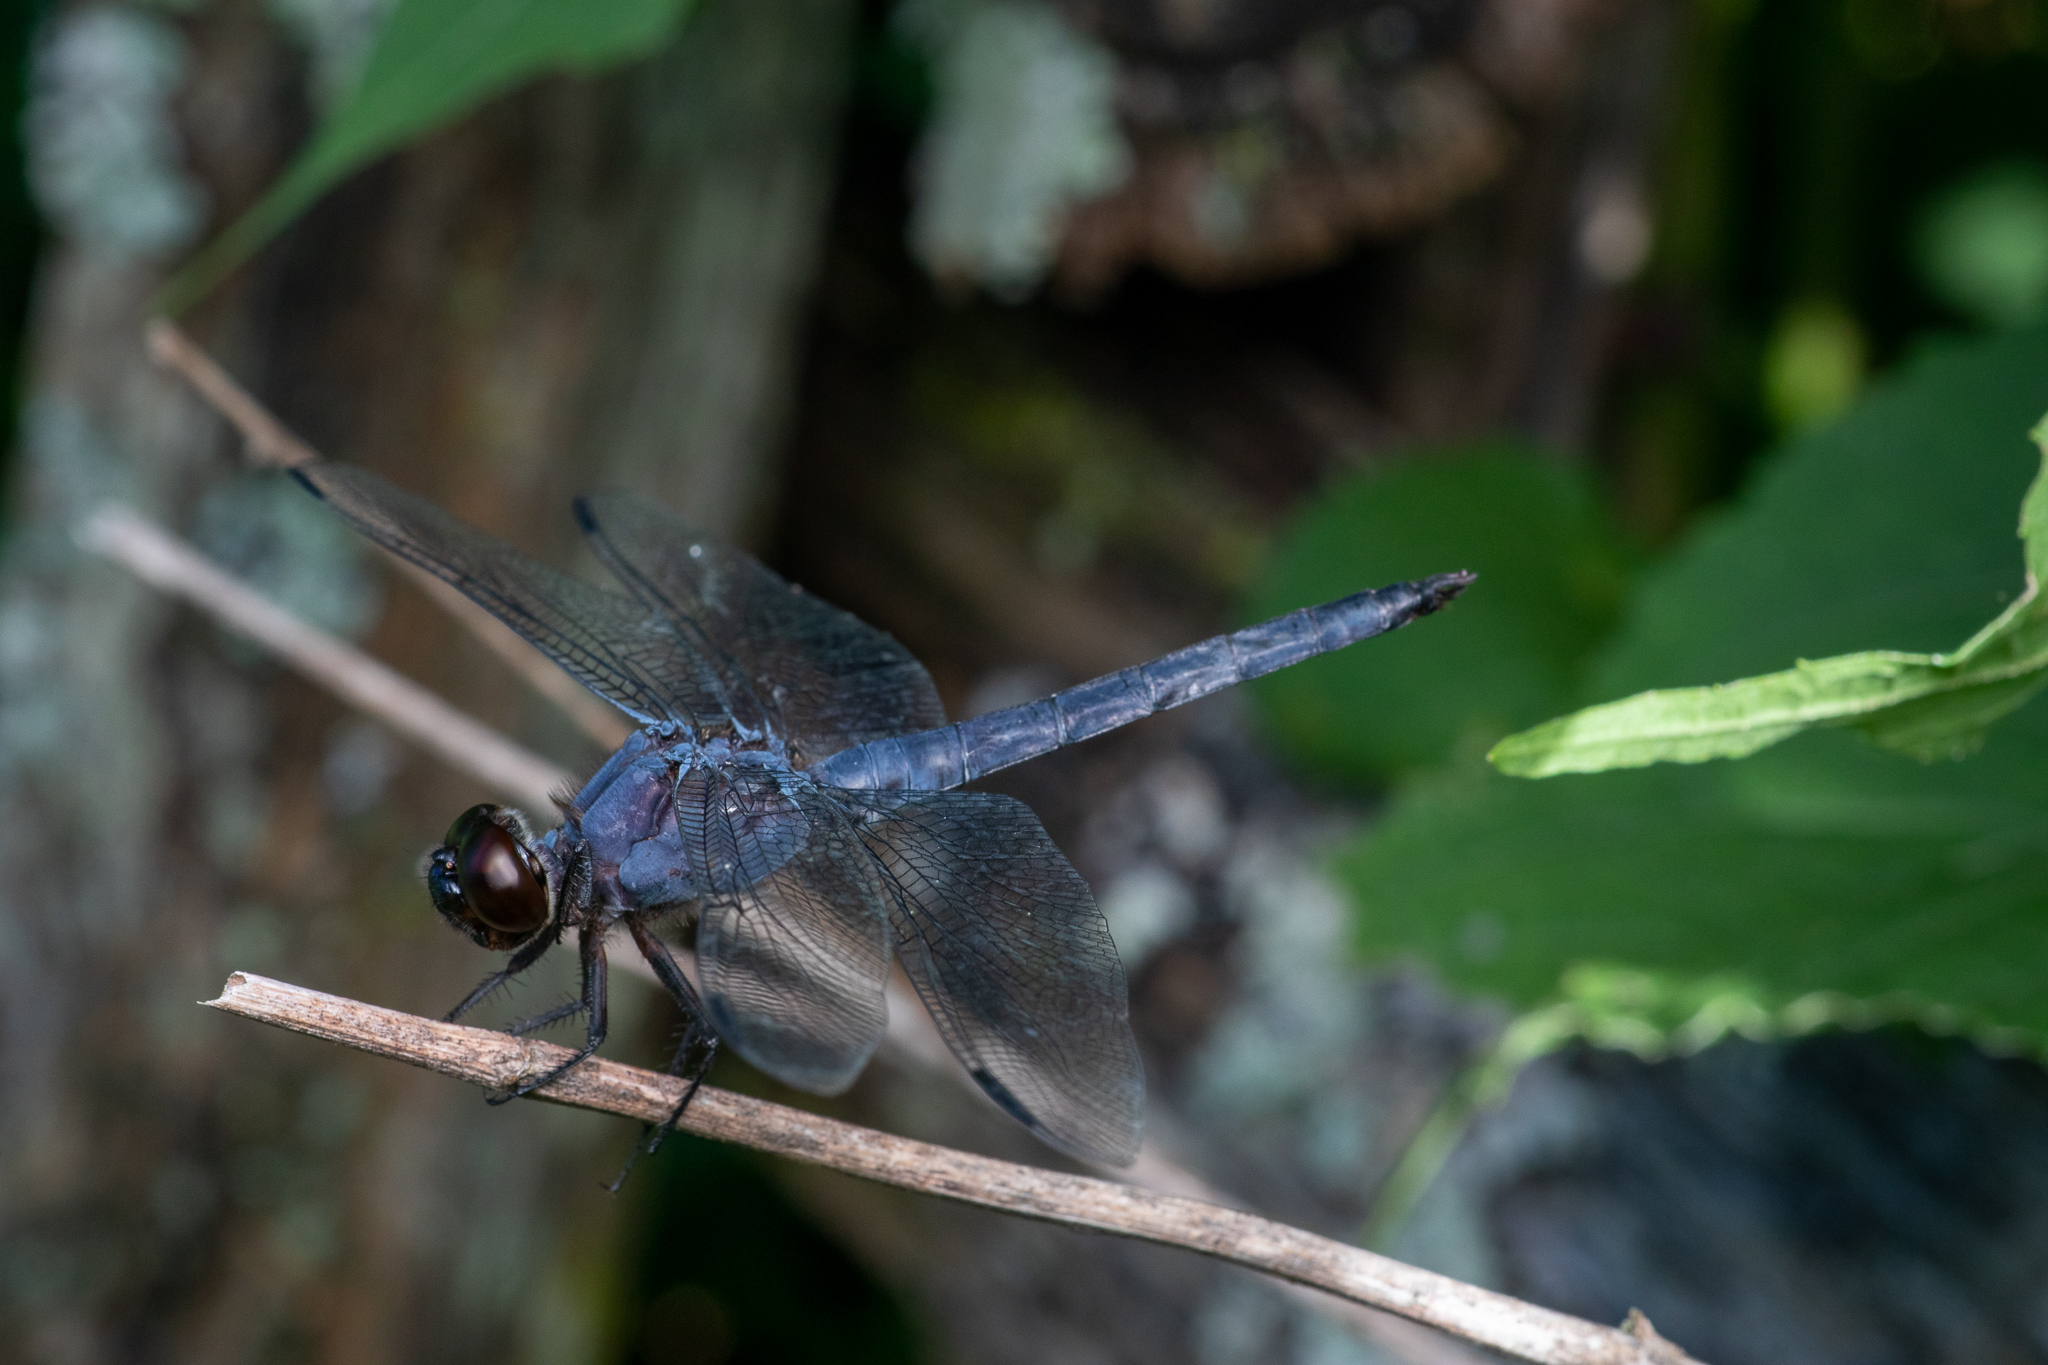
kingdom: Animalia
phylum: Arthropoda
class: Insecta
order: Odonata
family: Libellulidae
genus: Libellula
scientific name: Libellula incesta
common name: Slaty skimmer
